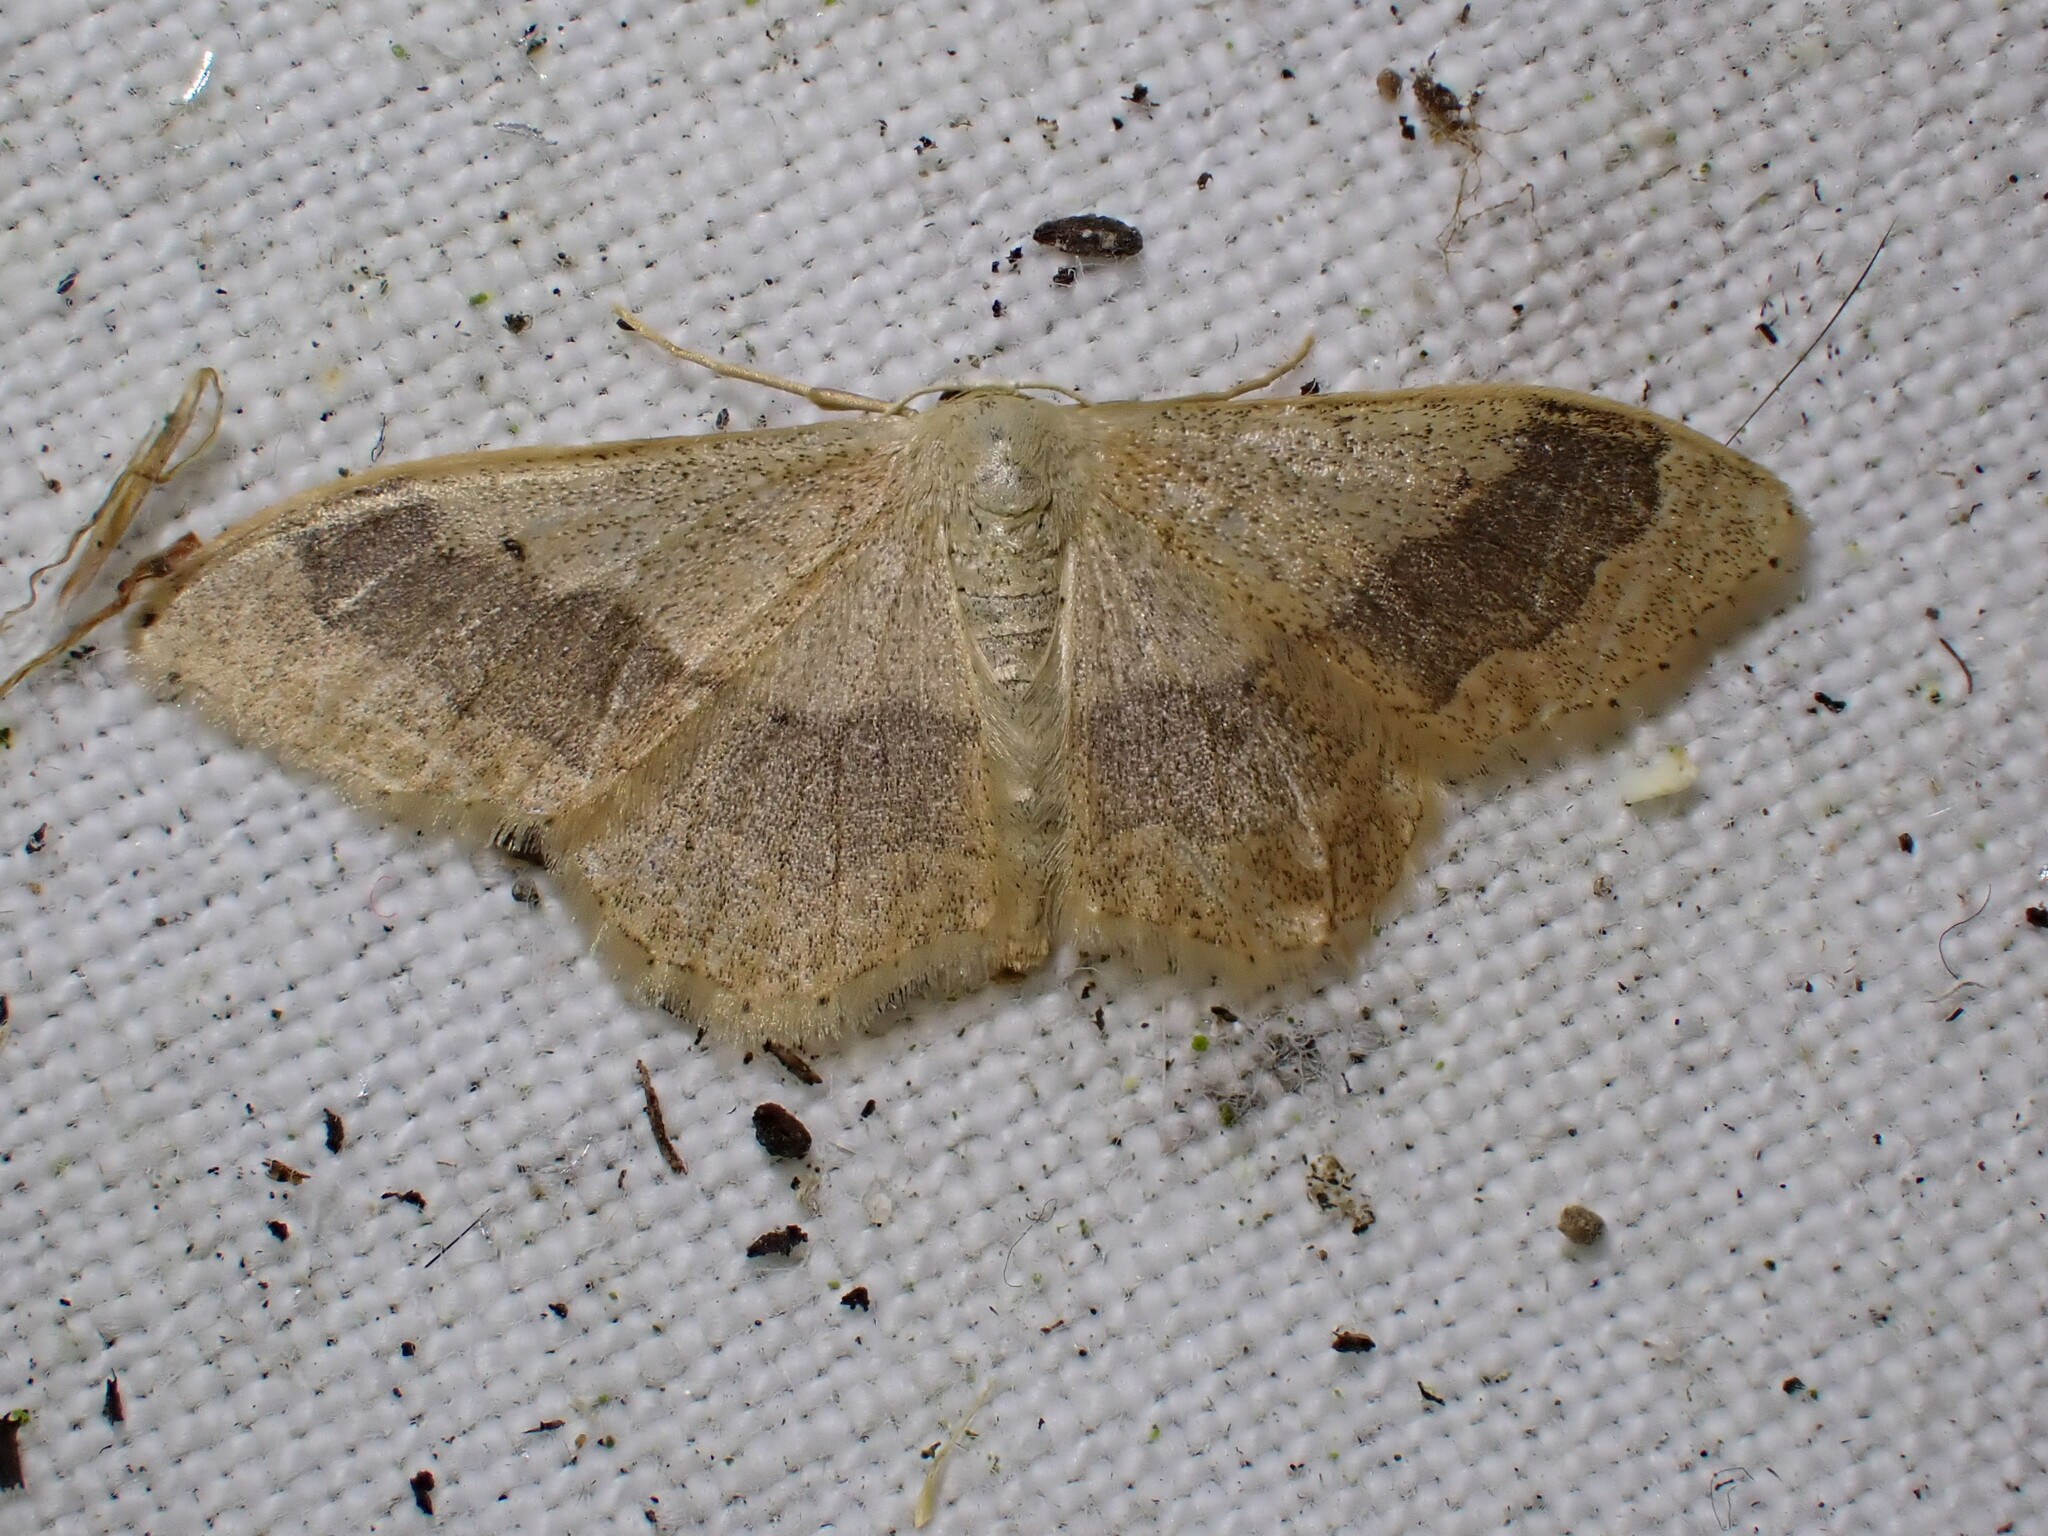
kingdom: Animalia
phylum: Arthropoda
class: Insecta
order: Lepidoptera
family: Geometridae
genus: Idaea
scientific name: Idaea aversata
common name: Riband wave
